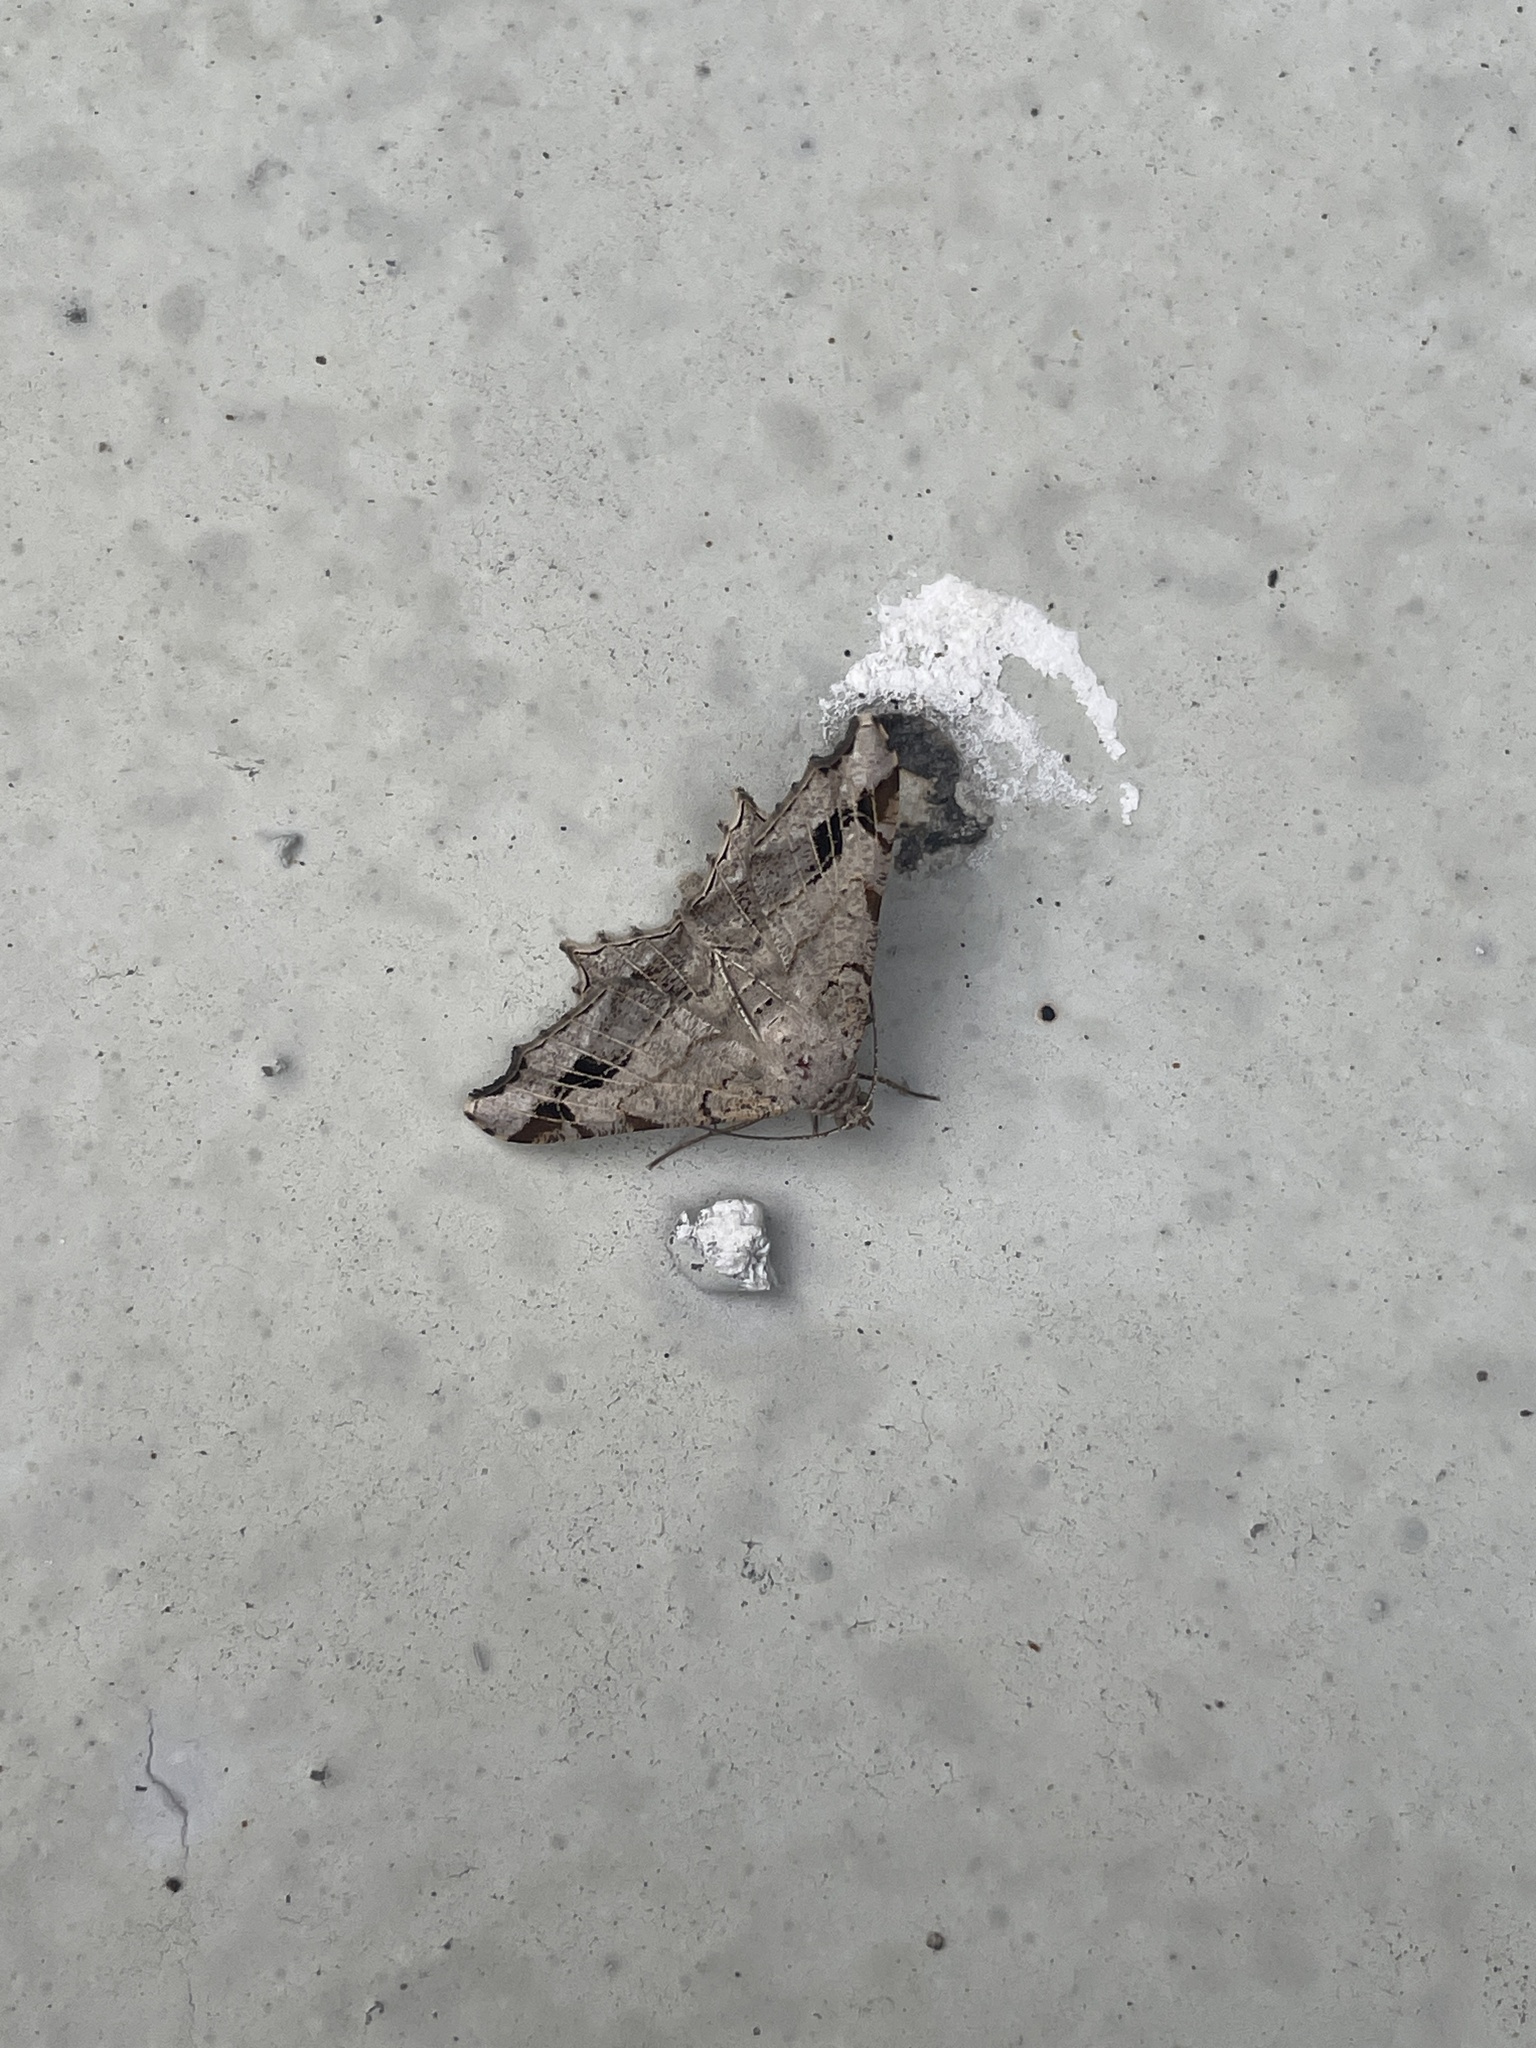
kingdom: Animalia
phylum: Arthropoda
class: Insecta
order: Lepidoptera
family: Geometridae
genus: Chiasmia
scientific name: Chiasmia emersaria
